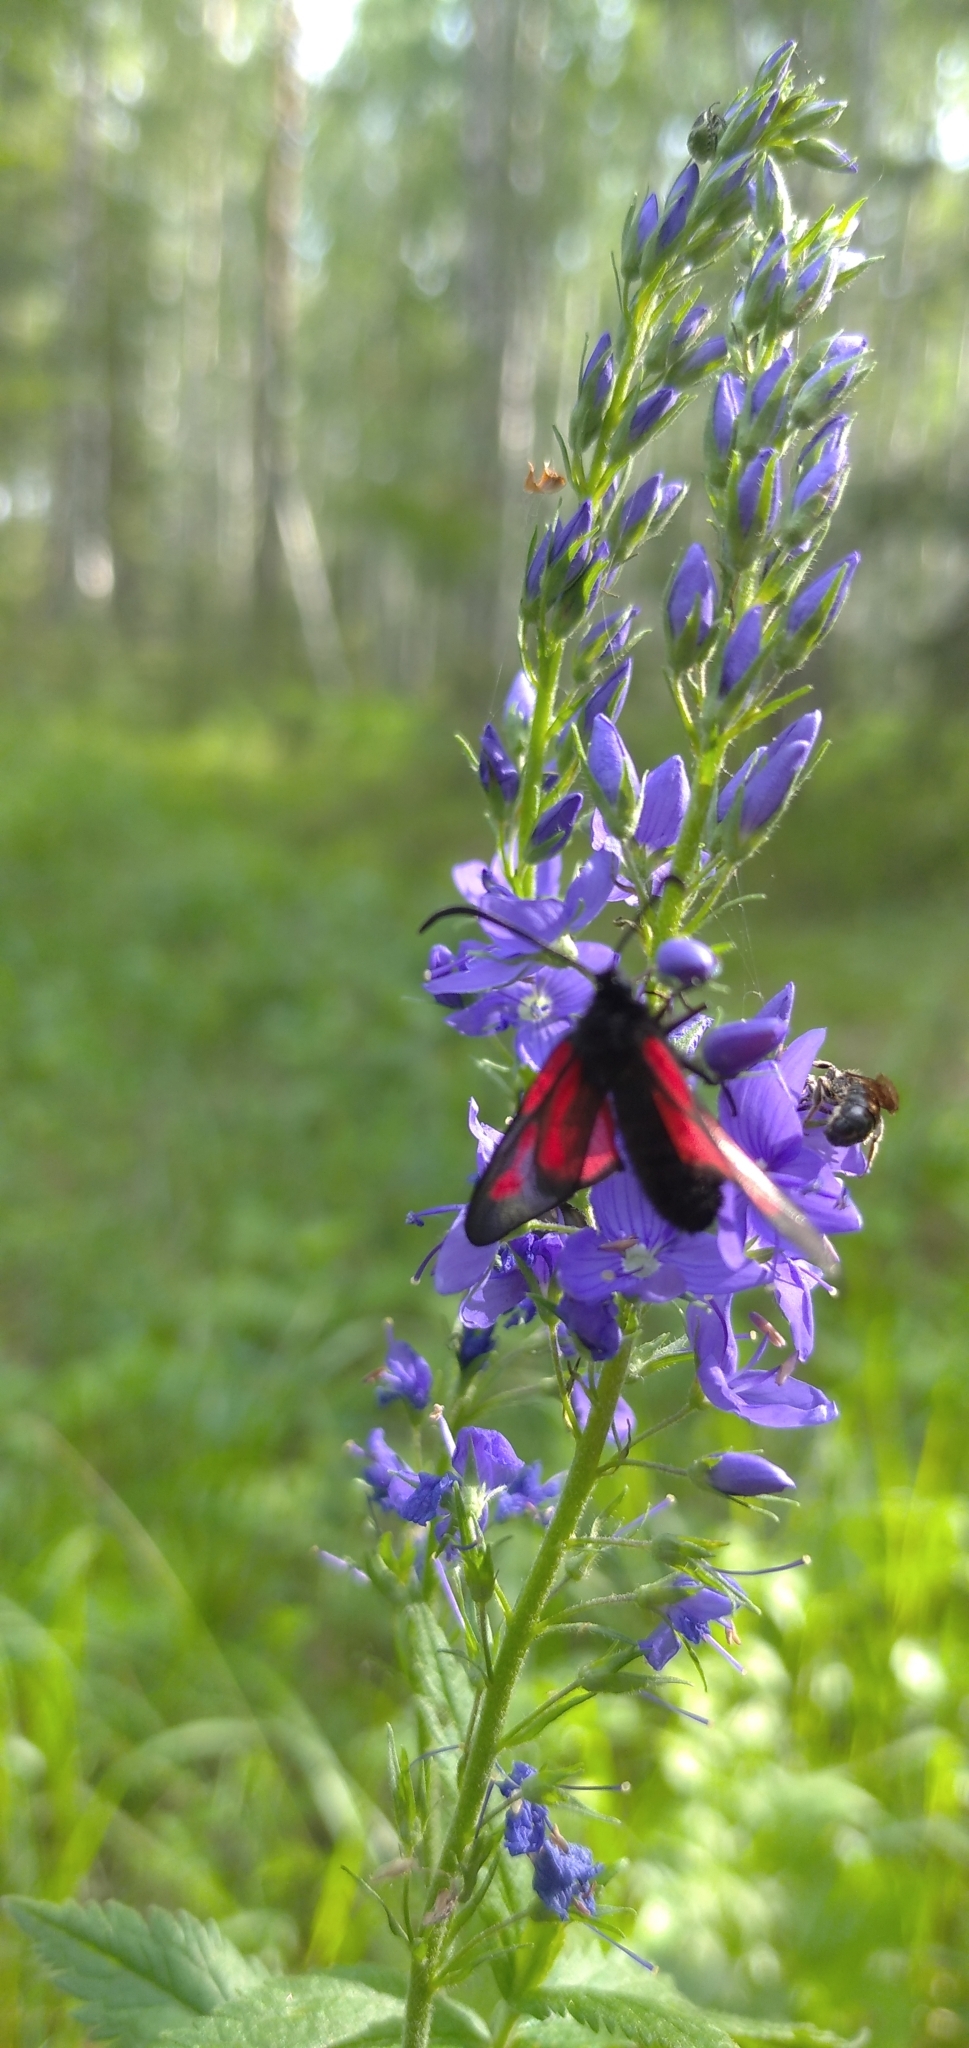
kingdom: Animalia
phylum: Arthropoda
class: Insecta
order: Lepidoptera
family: Zygaenidae
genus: Zygaena
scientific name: Zygaena osterodensis
